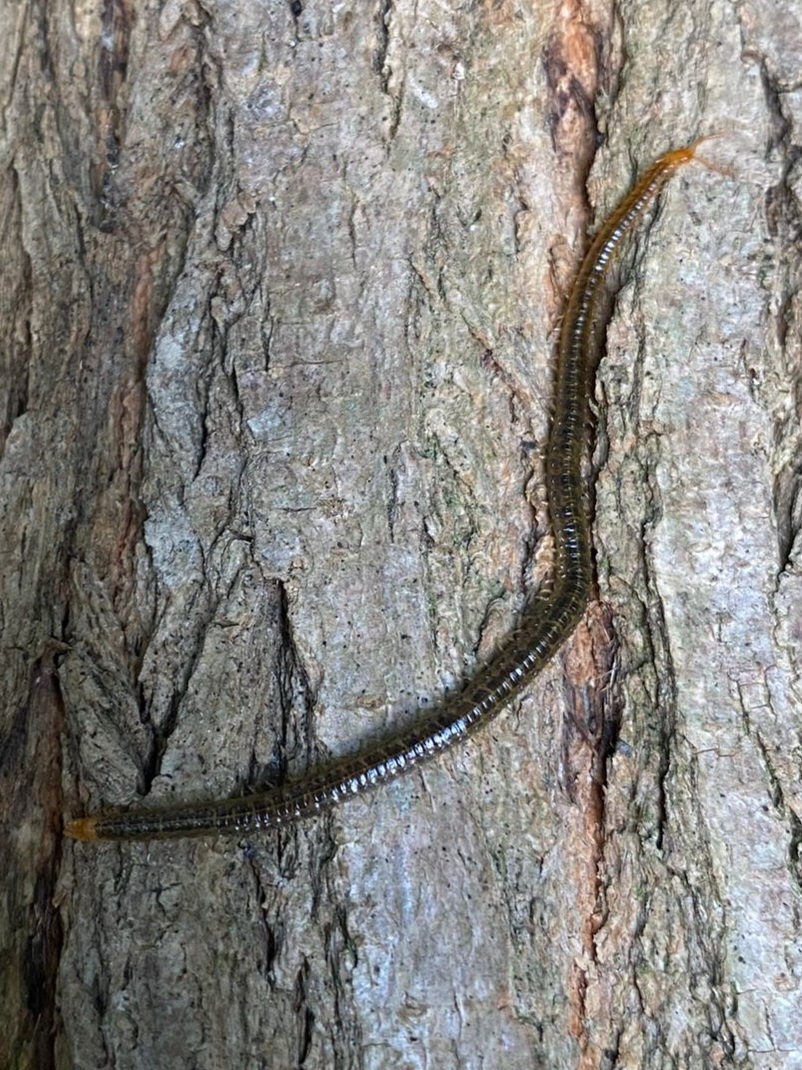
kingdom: Animalia
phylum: Arthropoda
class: Chilopoda
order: Geophilomorpha
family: Dignathodontidae
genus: Henia
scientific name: Henia vesuviana
